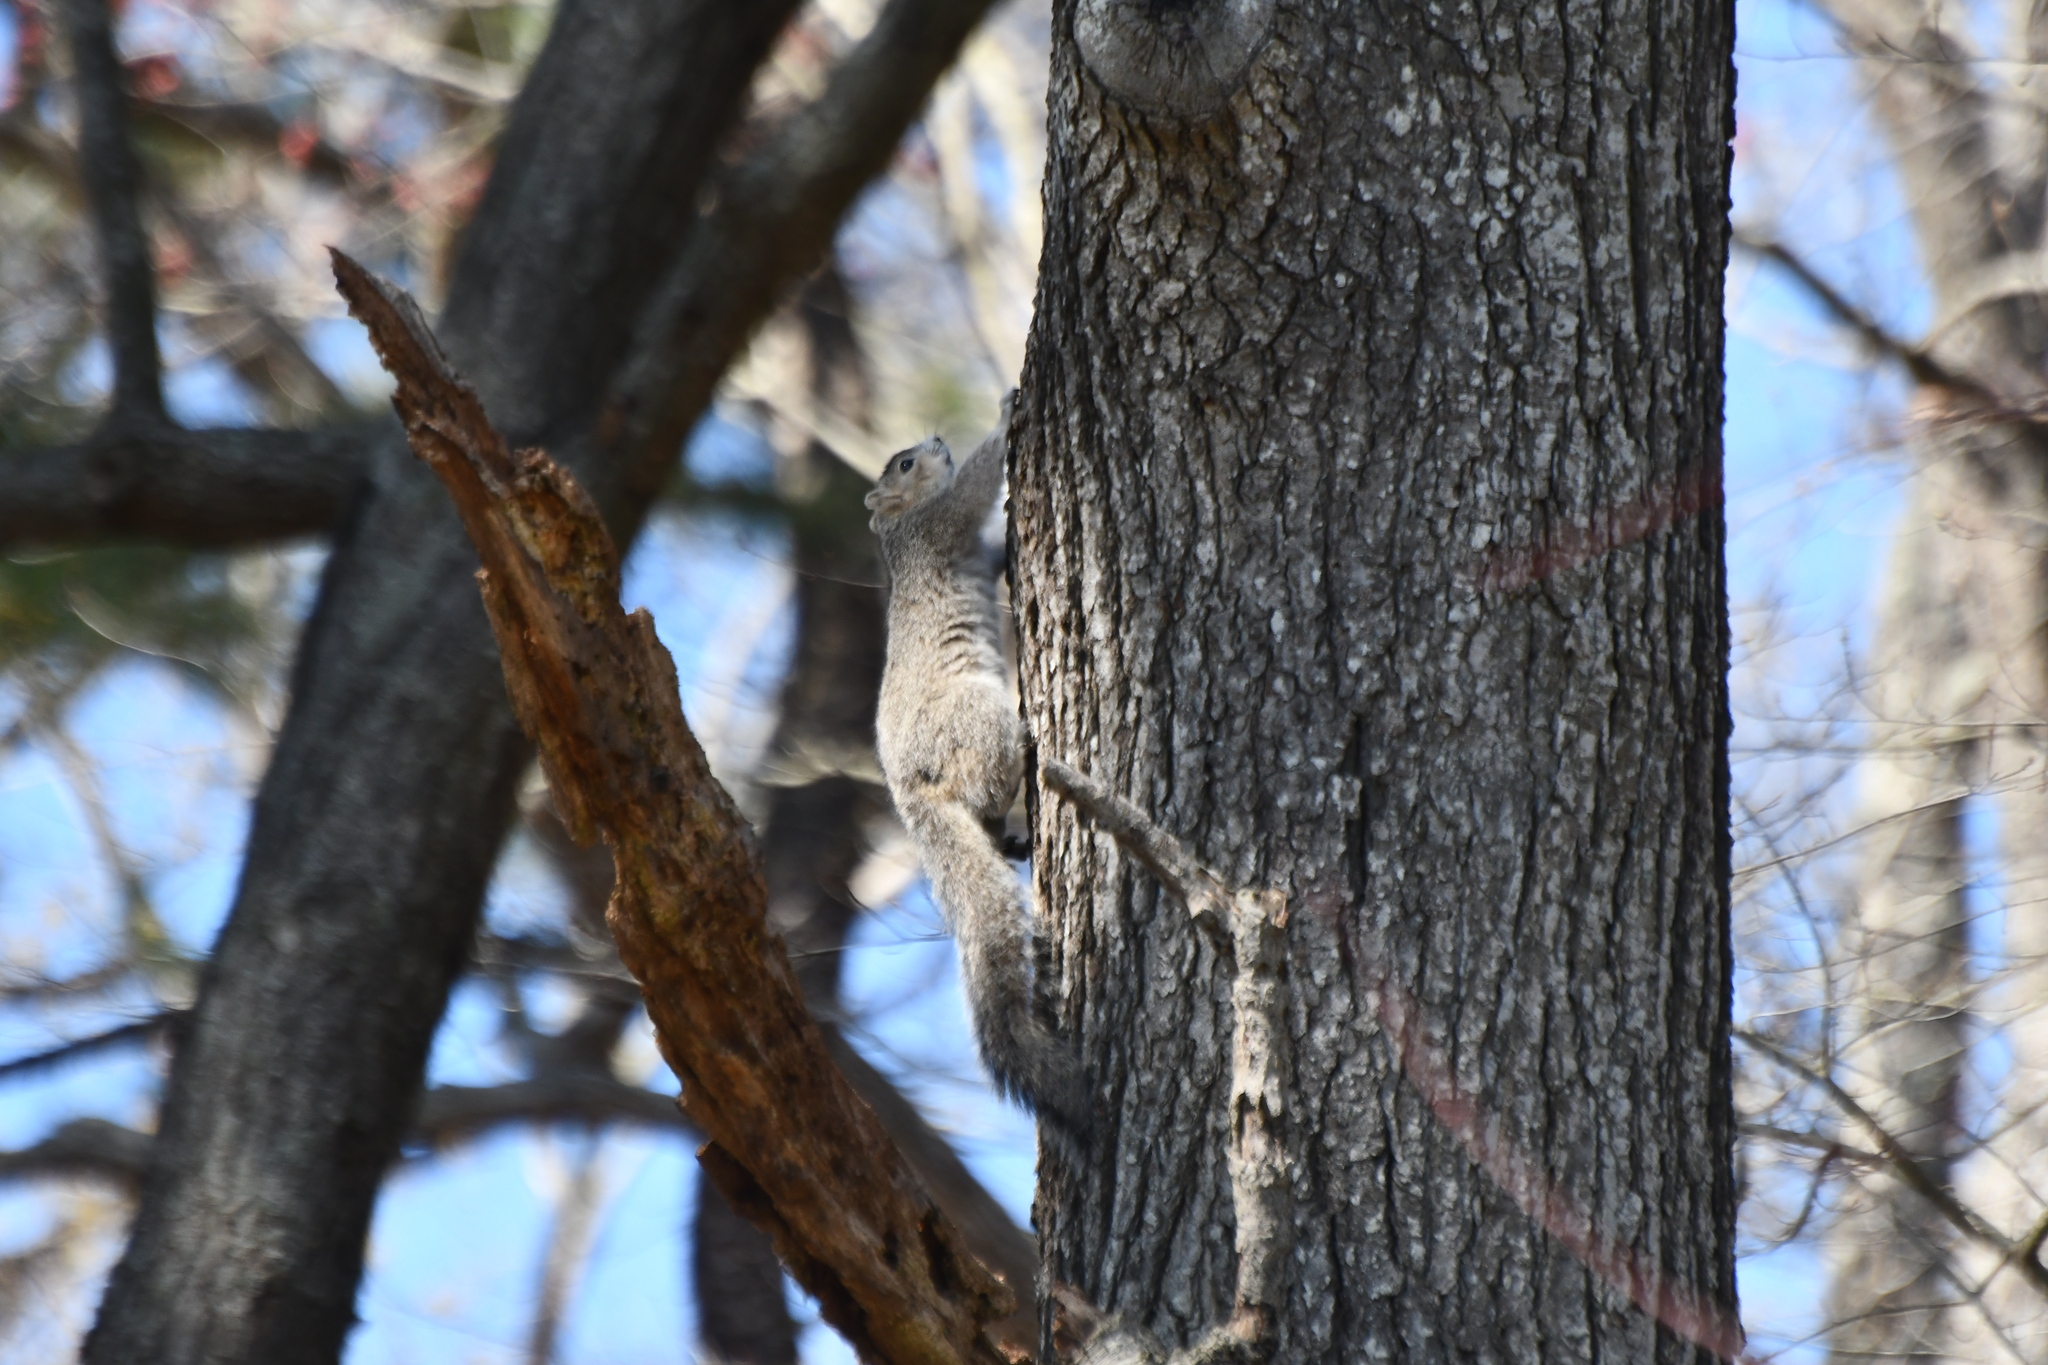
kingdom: Animalia
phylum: Chordata
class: Mammalia
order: Rodentia
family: Sciuridae
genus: Sciurus
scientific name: Sciurus niger
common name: Fox squirrel
